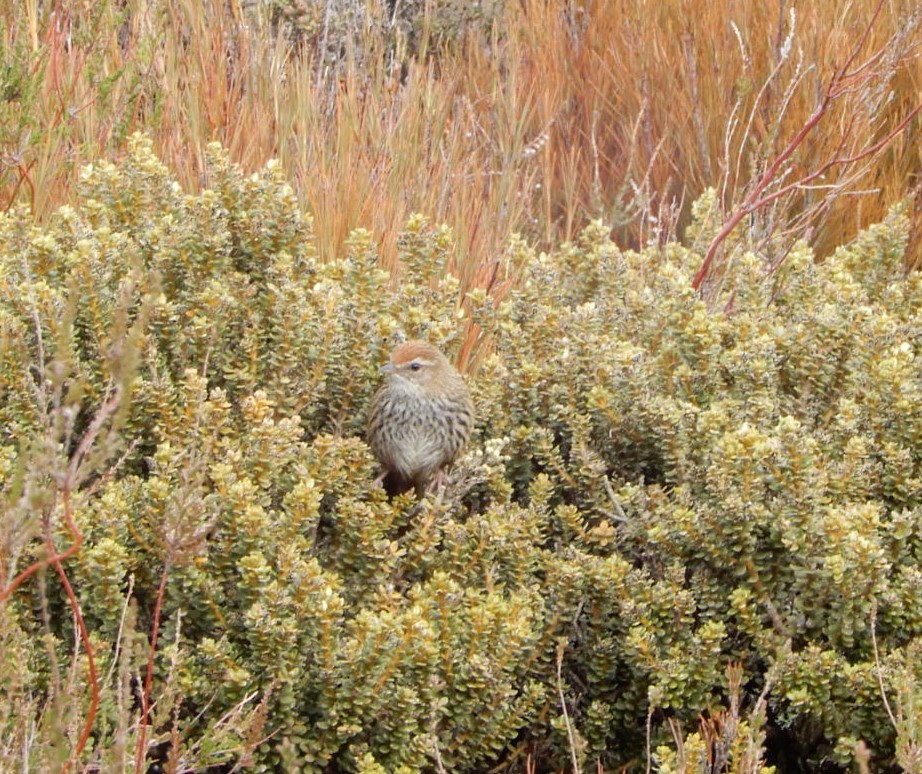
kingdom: Animalia
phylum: Chordata
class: Aves
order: Passeriformes
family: Locustellidae
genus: Megalurus
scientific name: Megalurus punctatus
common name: New zealand fernbird
